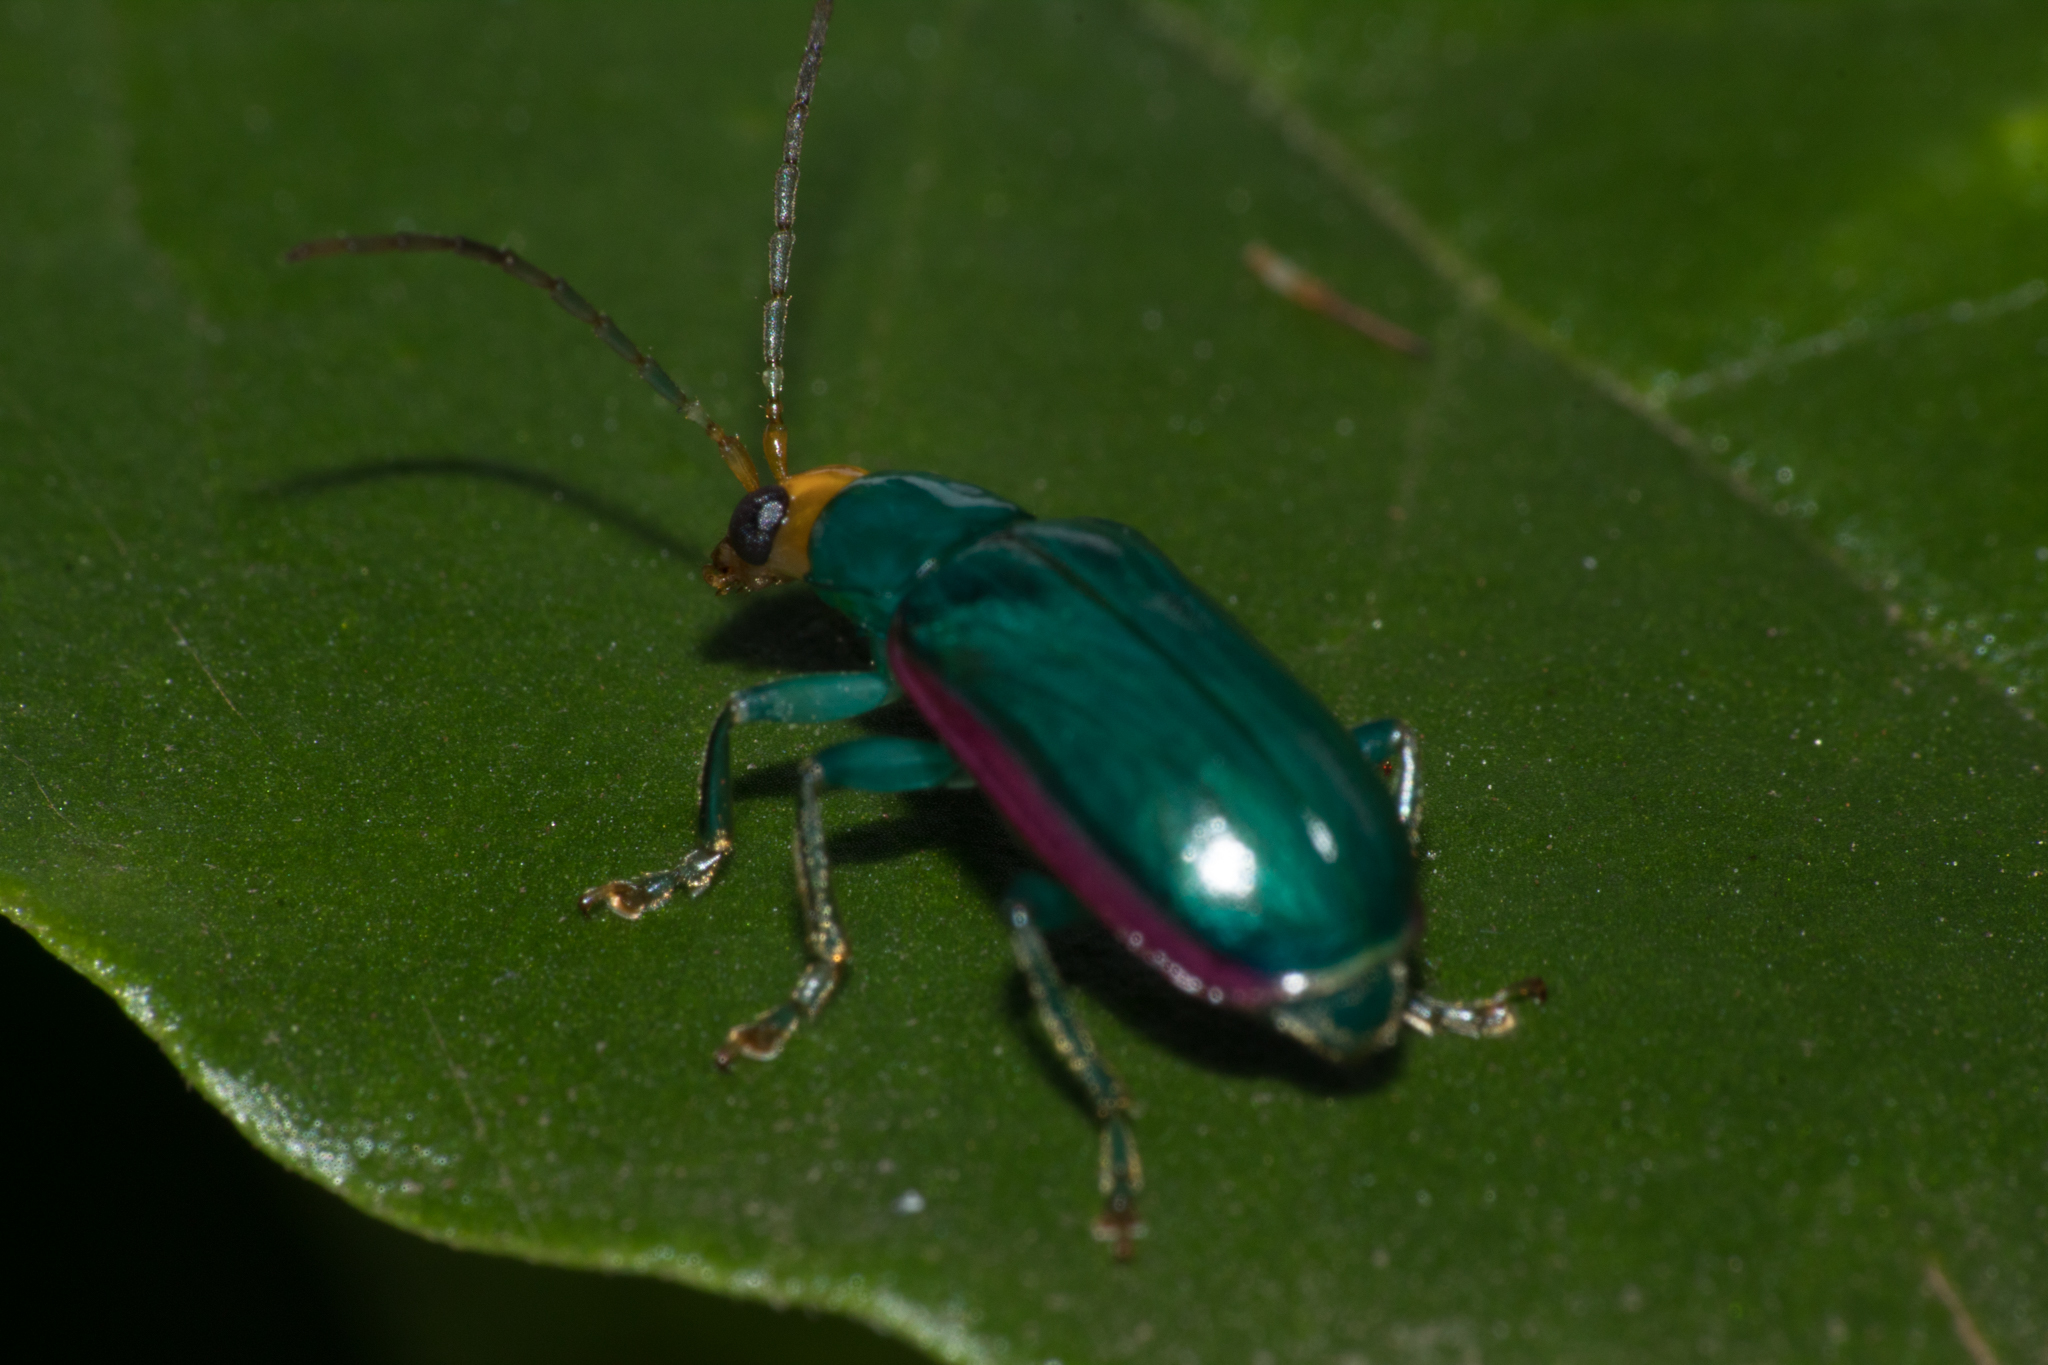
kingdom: Animalia
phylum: Arthropoda
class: Insecta
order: Coleoptera
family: Chrysomelidae
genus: Diabrotica
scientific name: Diabrotica
